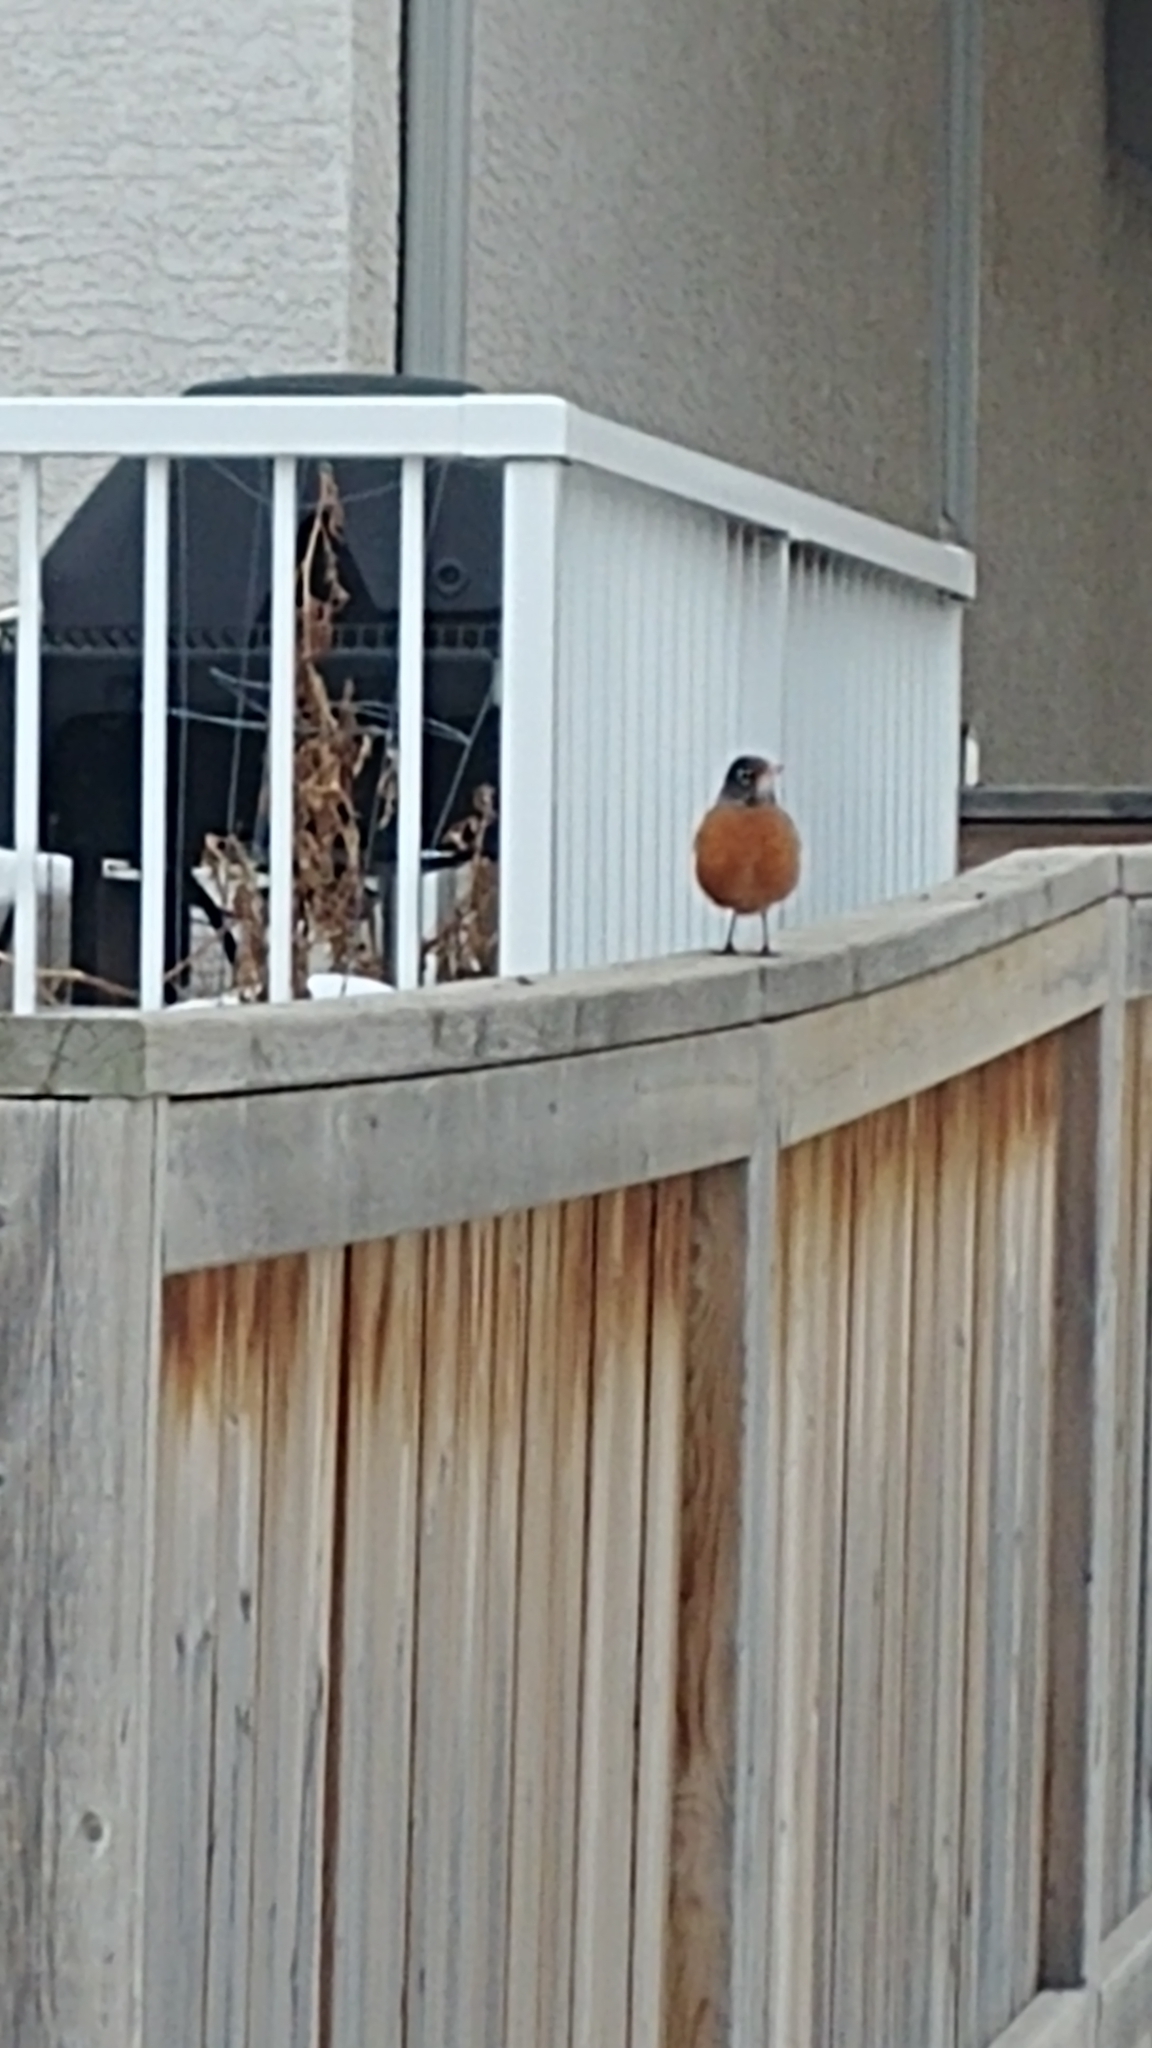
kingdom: Animalia
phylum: Chordata
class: Aves
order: Passeriformes
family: Turdidae
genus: Turdus
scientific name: Turdus migratorius
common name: American robin
